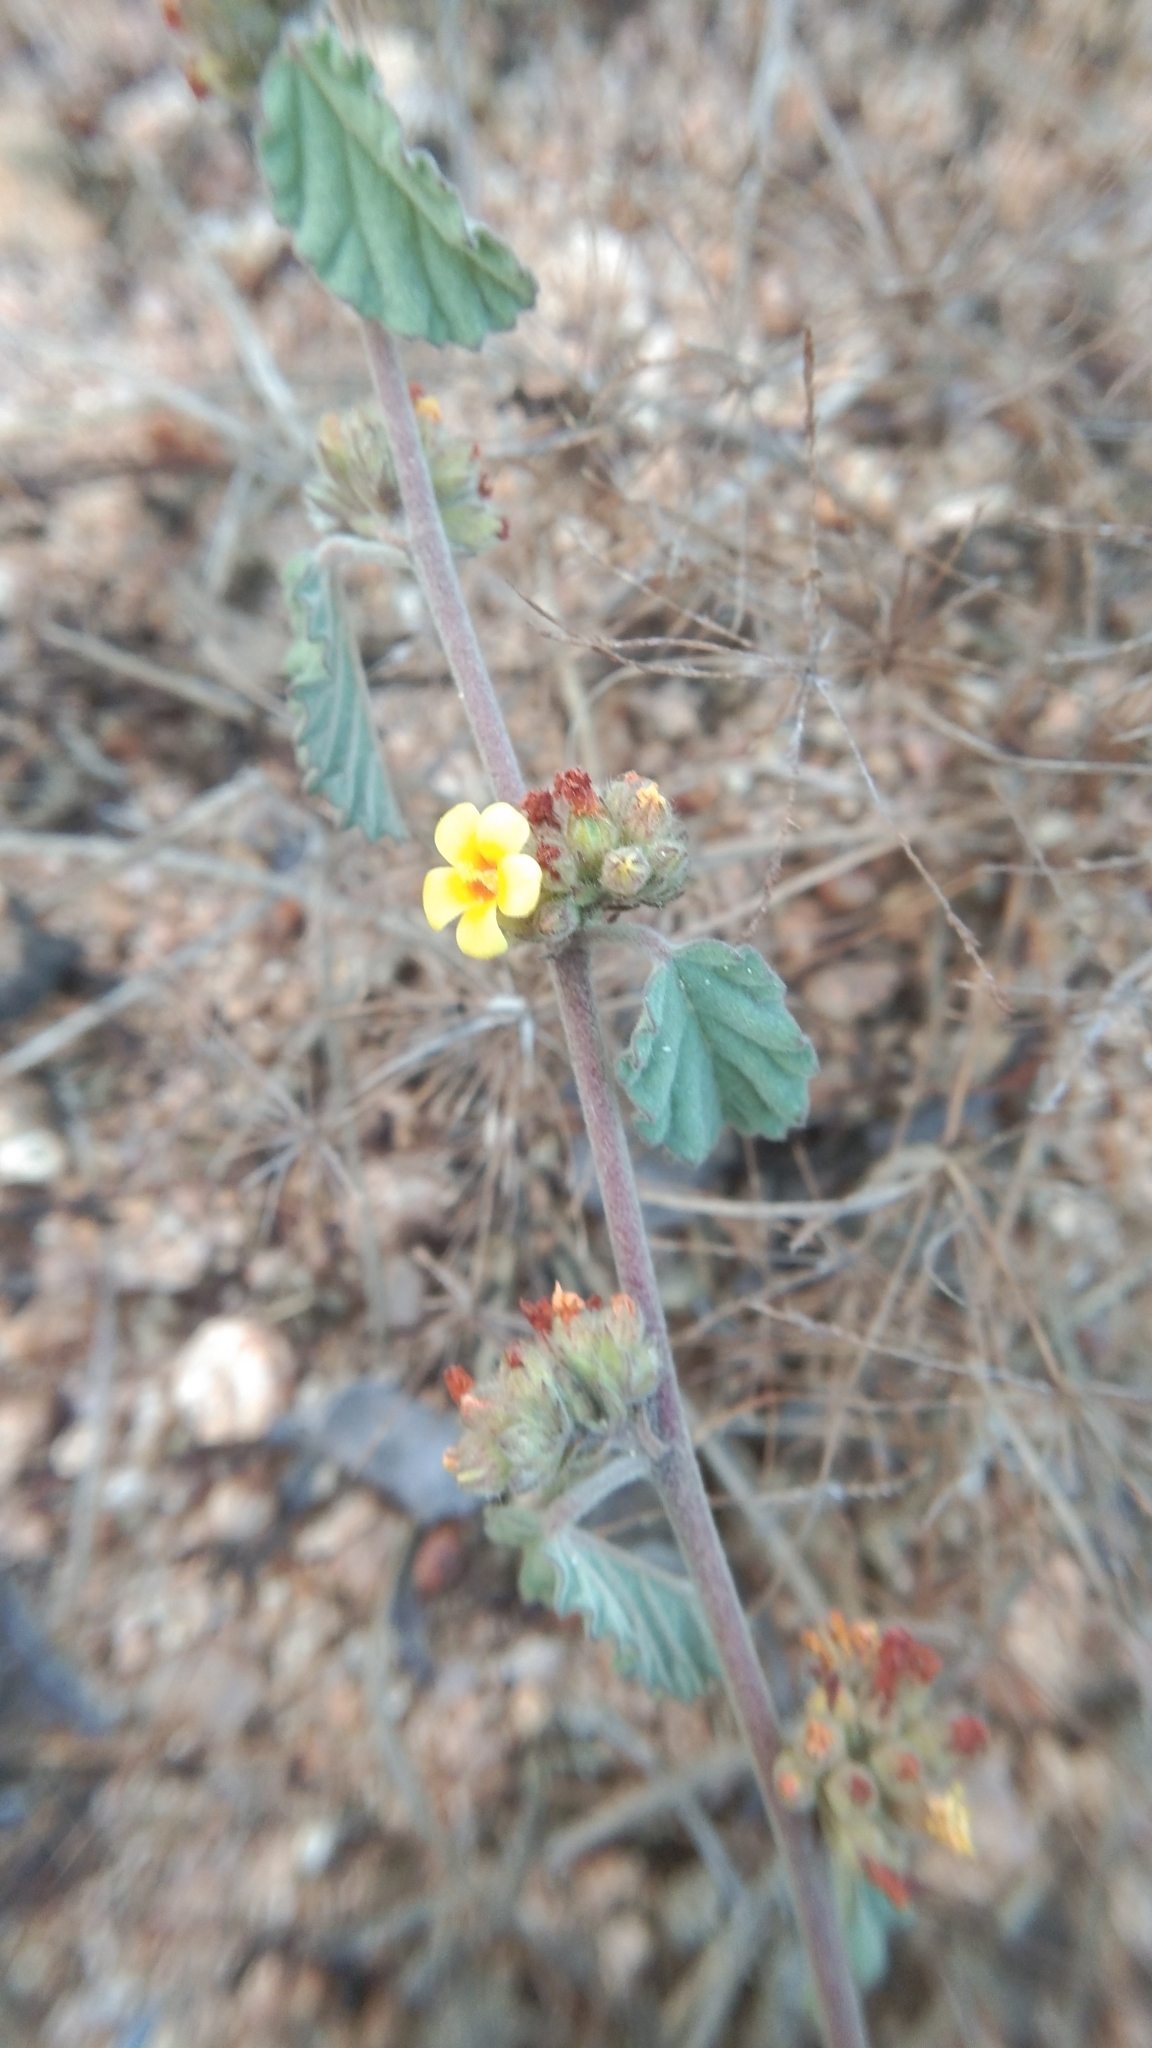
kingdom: Plantae
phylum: Tracheophyta
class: Magnoliopsida
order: Malvales
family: Malvaceae
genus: Waltheria
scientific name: Waltheria indica
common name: Leather-coat
